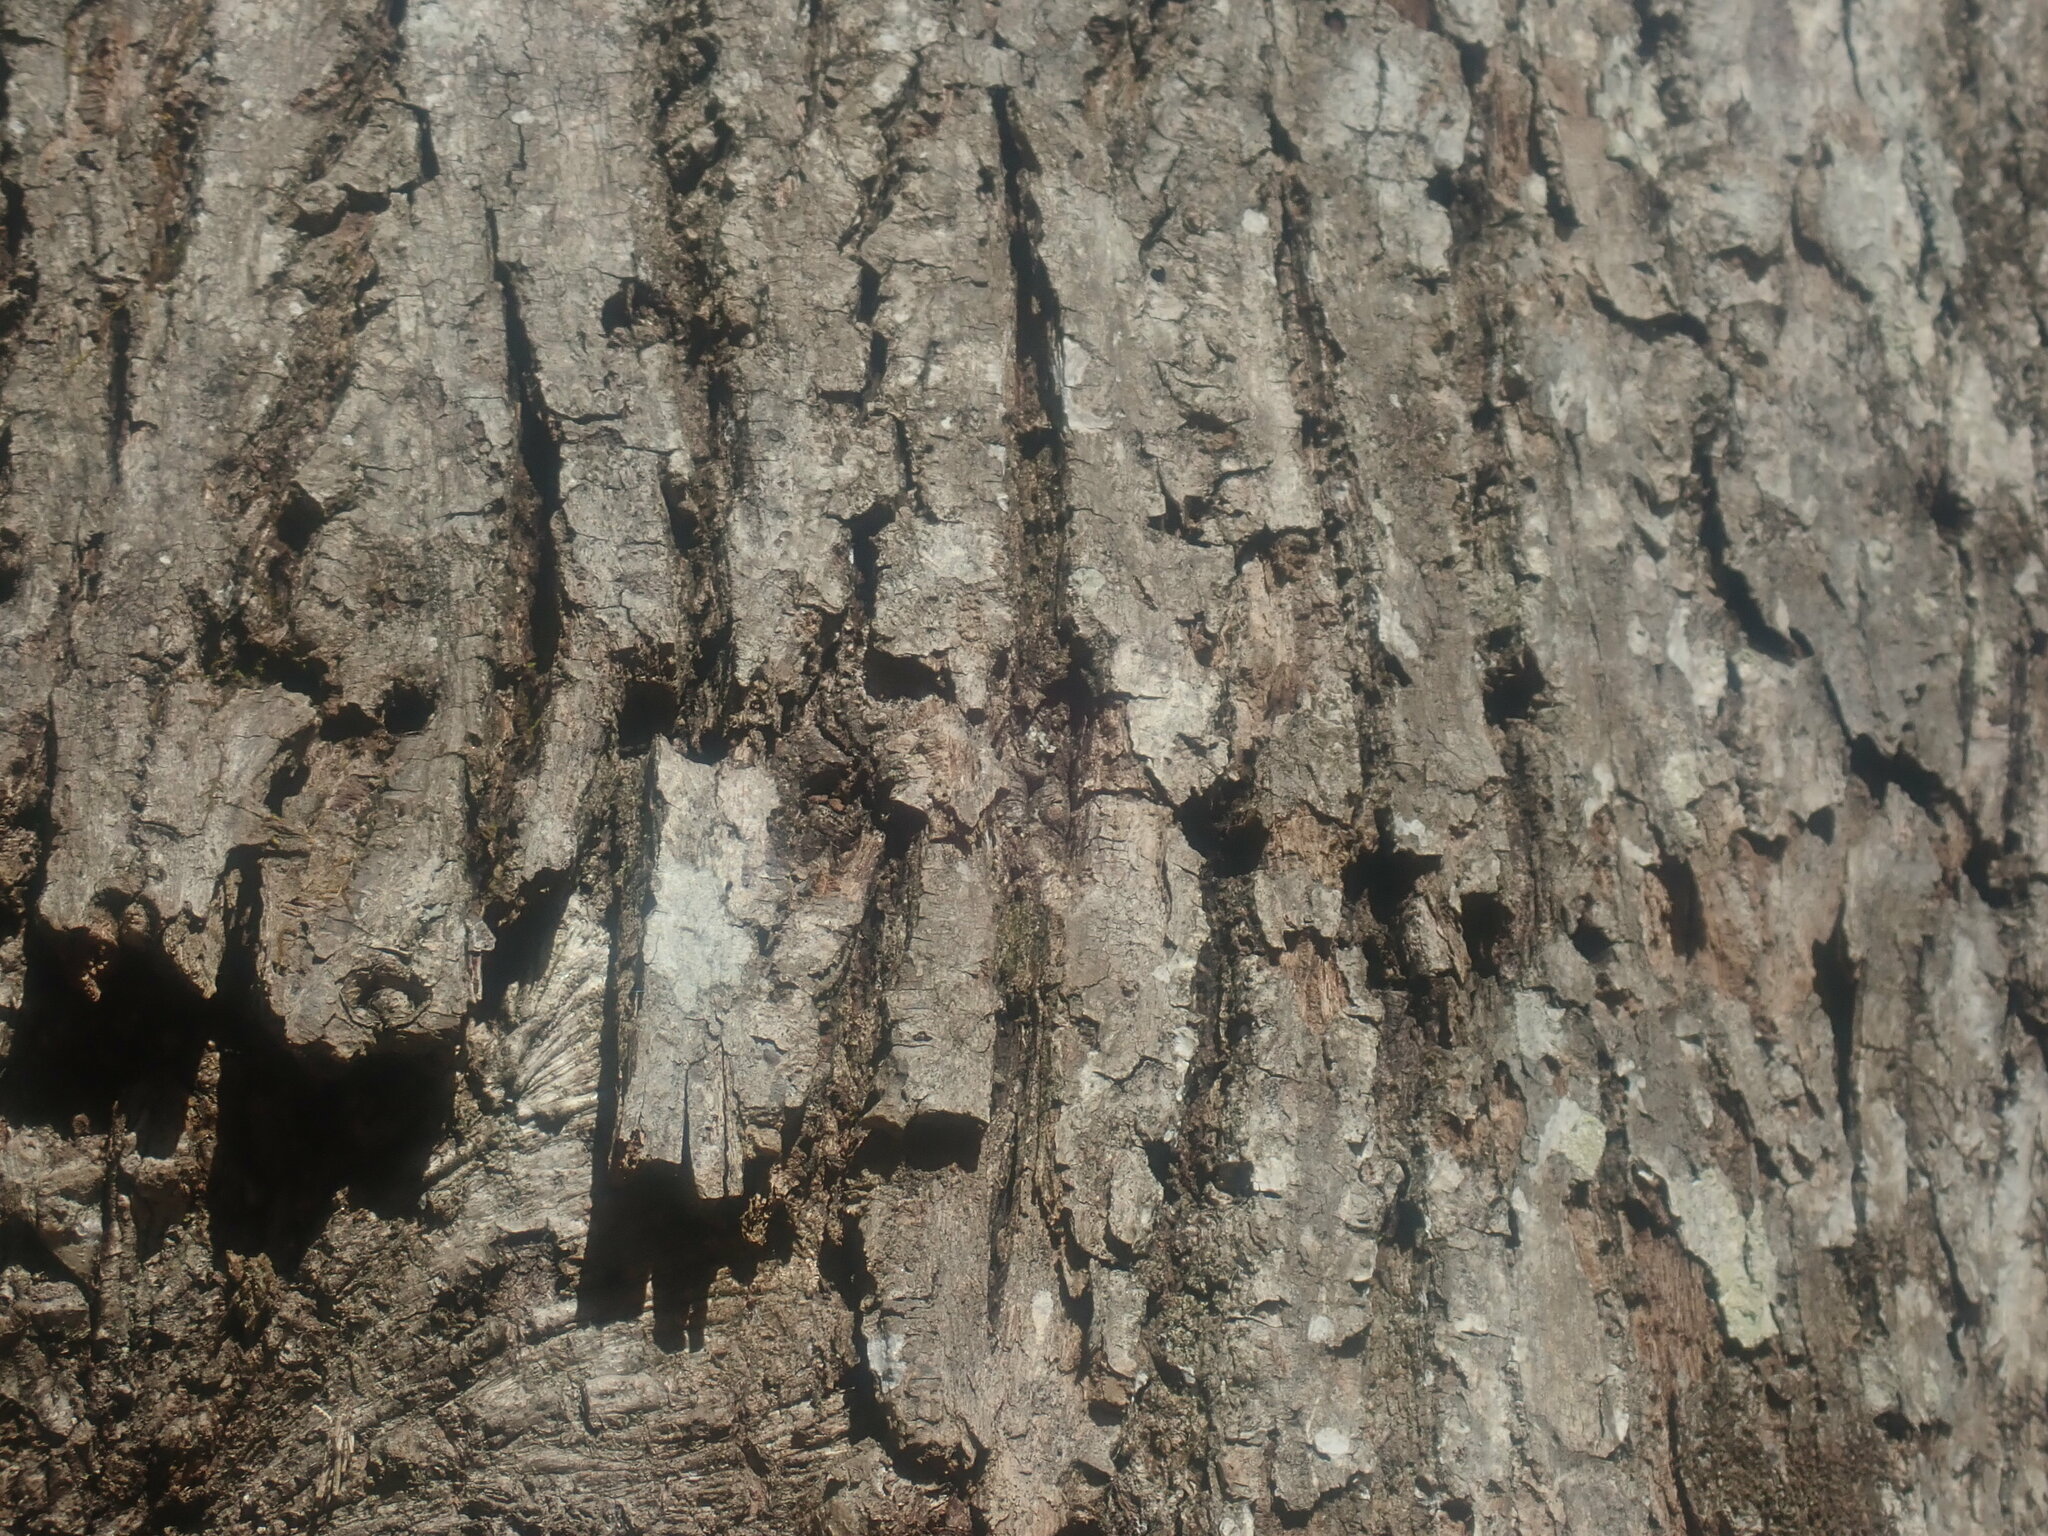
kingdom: Animalia
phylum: Chordata
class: Aves
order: Piciformes
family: Picidae
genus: Sphyrapicus
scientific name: Sphyrapicus varius
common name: Yellow-bellied sapsucker
